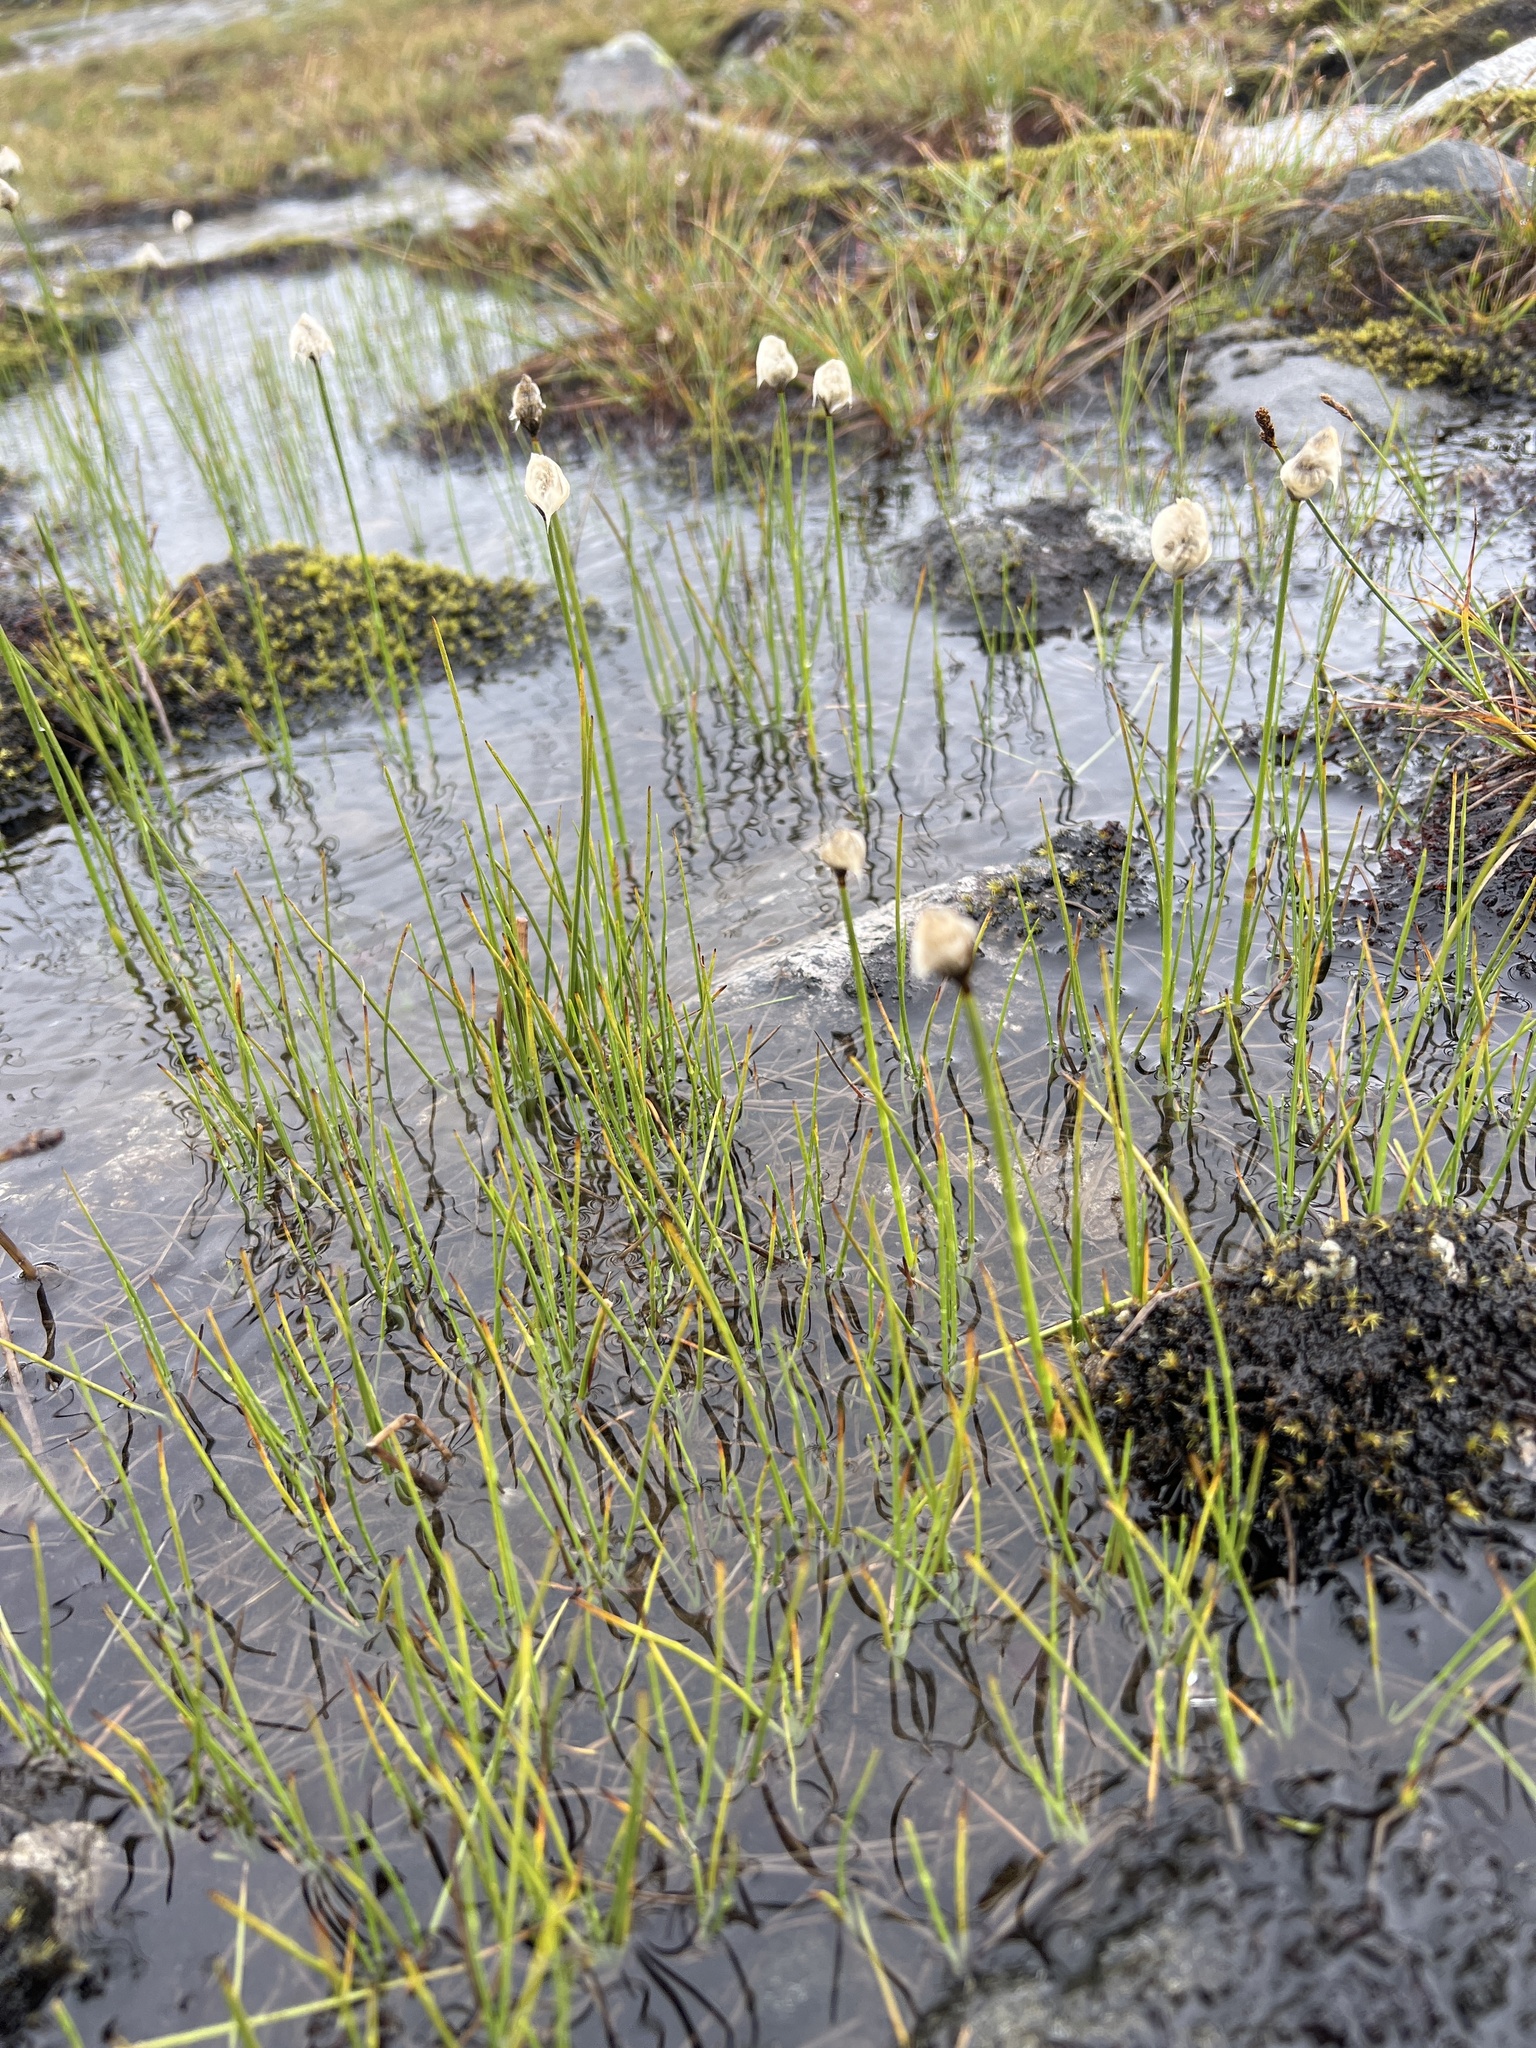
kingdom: Plantae
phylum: Tracheophyta
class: Liliopsida
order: Poales
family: Cyperaceae
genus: Eriophorum
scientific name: Eriophorum scheuchzeri
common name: Scheuchzer's cottongrass
